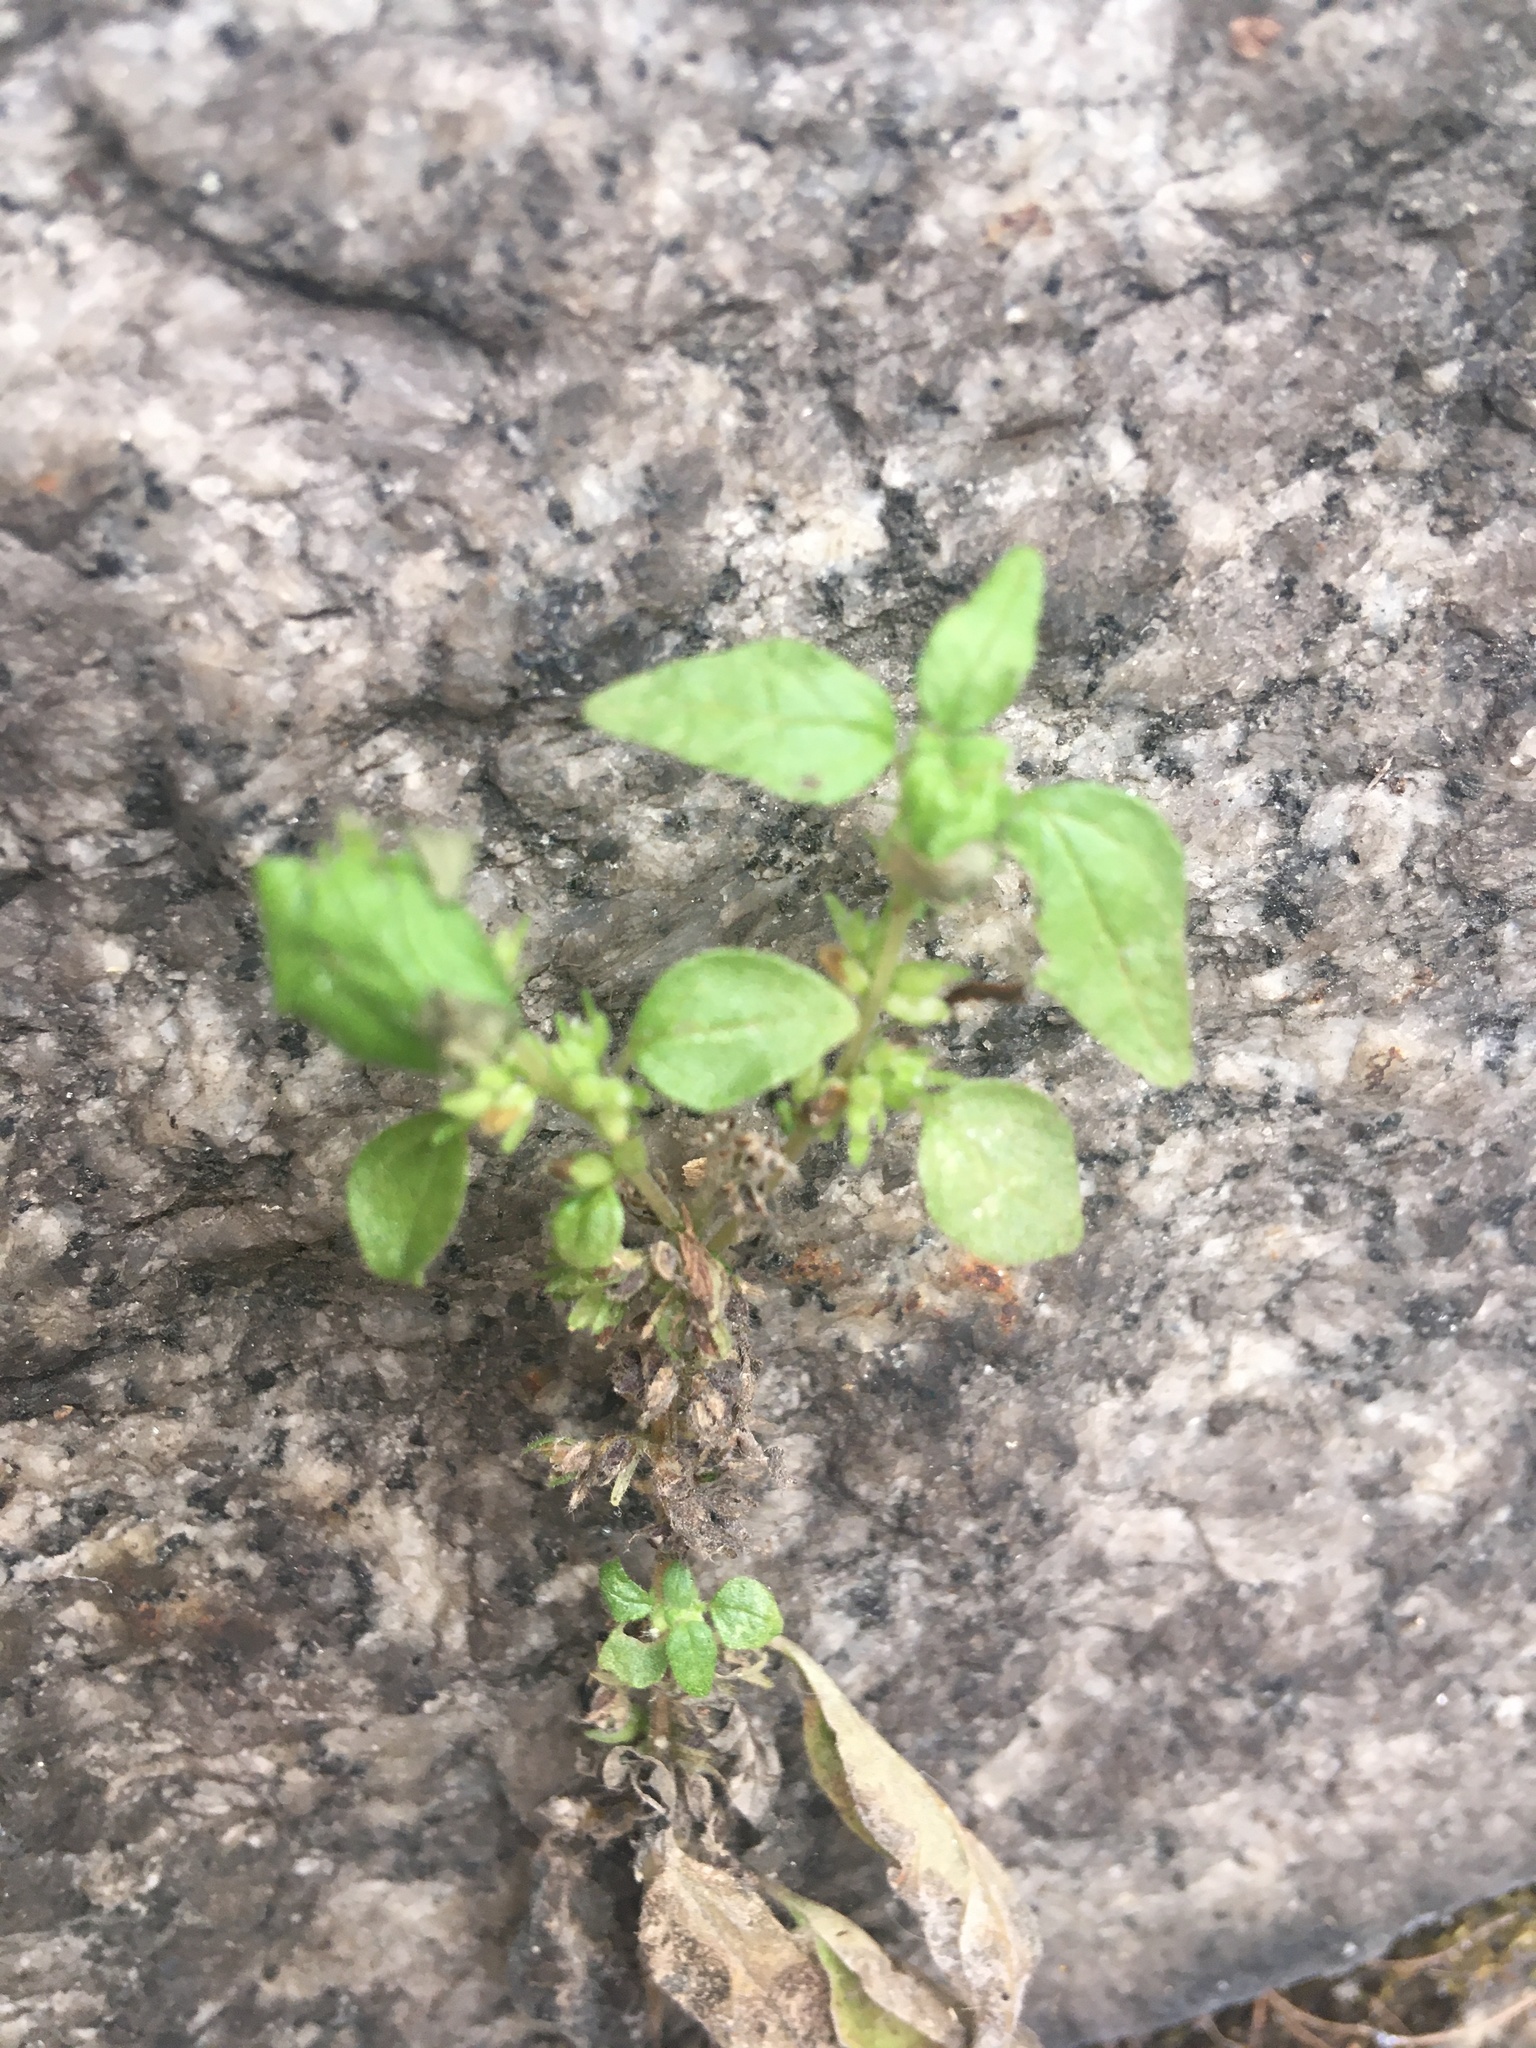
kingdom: Plantae
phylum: Tracheophyta
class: Magnoliopsida
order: Rosales
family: Urticaceae
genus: Parietaria
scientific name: Parietaria pensylvanica
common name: Pennsylvania pellitory
